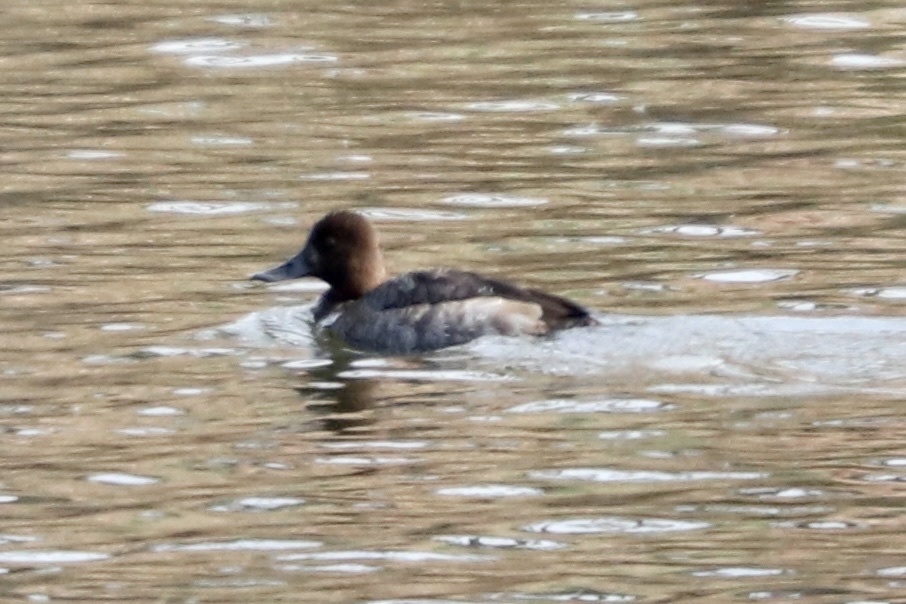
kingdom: Animalia
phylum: Chordata
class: Aves
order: Anseriformes
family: Anatidae
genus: Aythya
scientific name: Aythya affinis
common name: Lesser scaup
